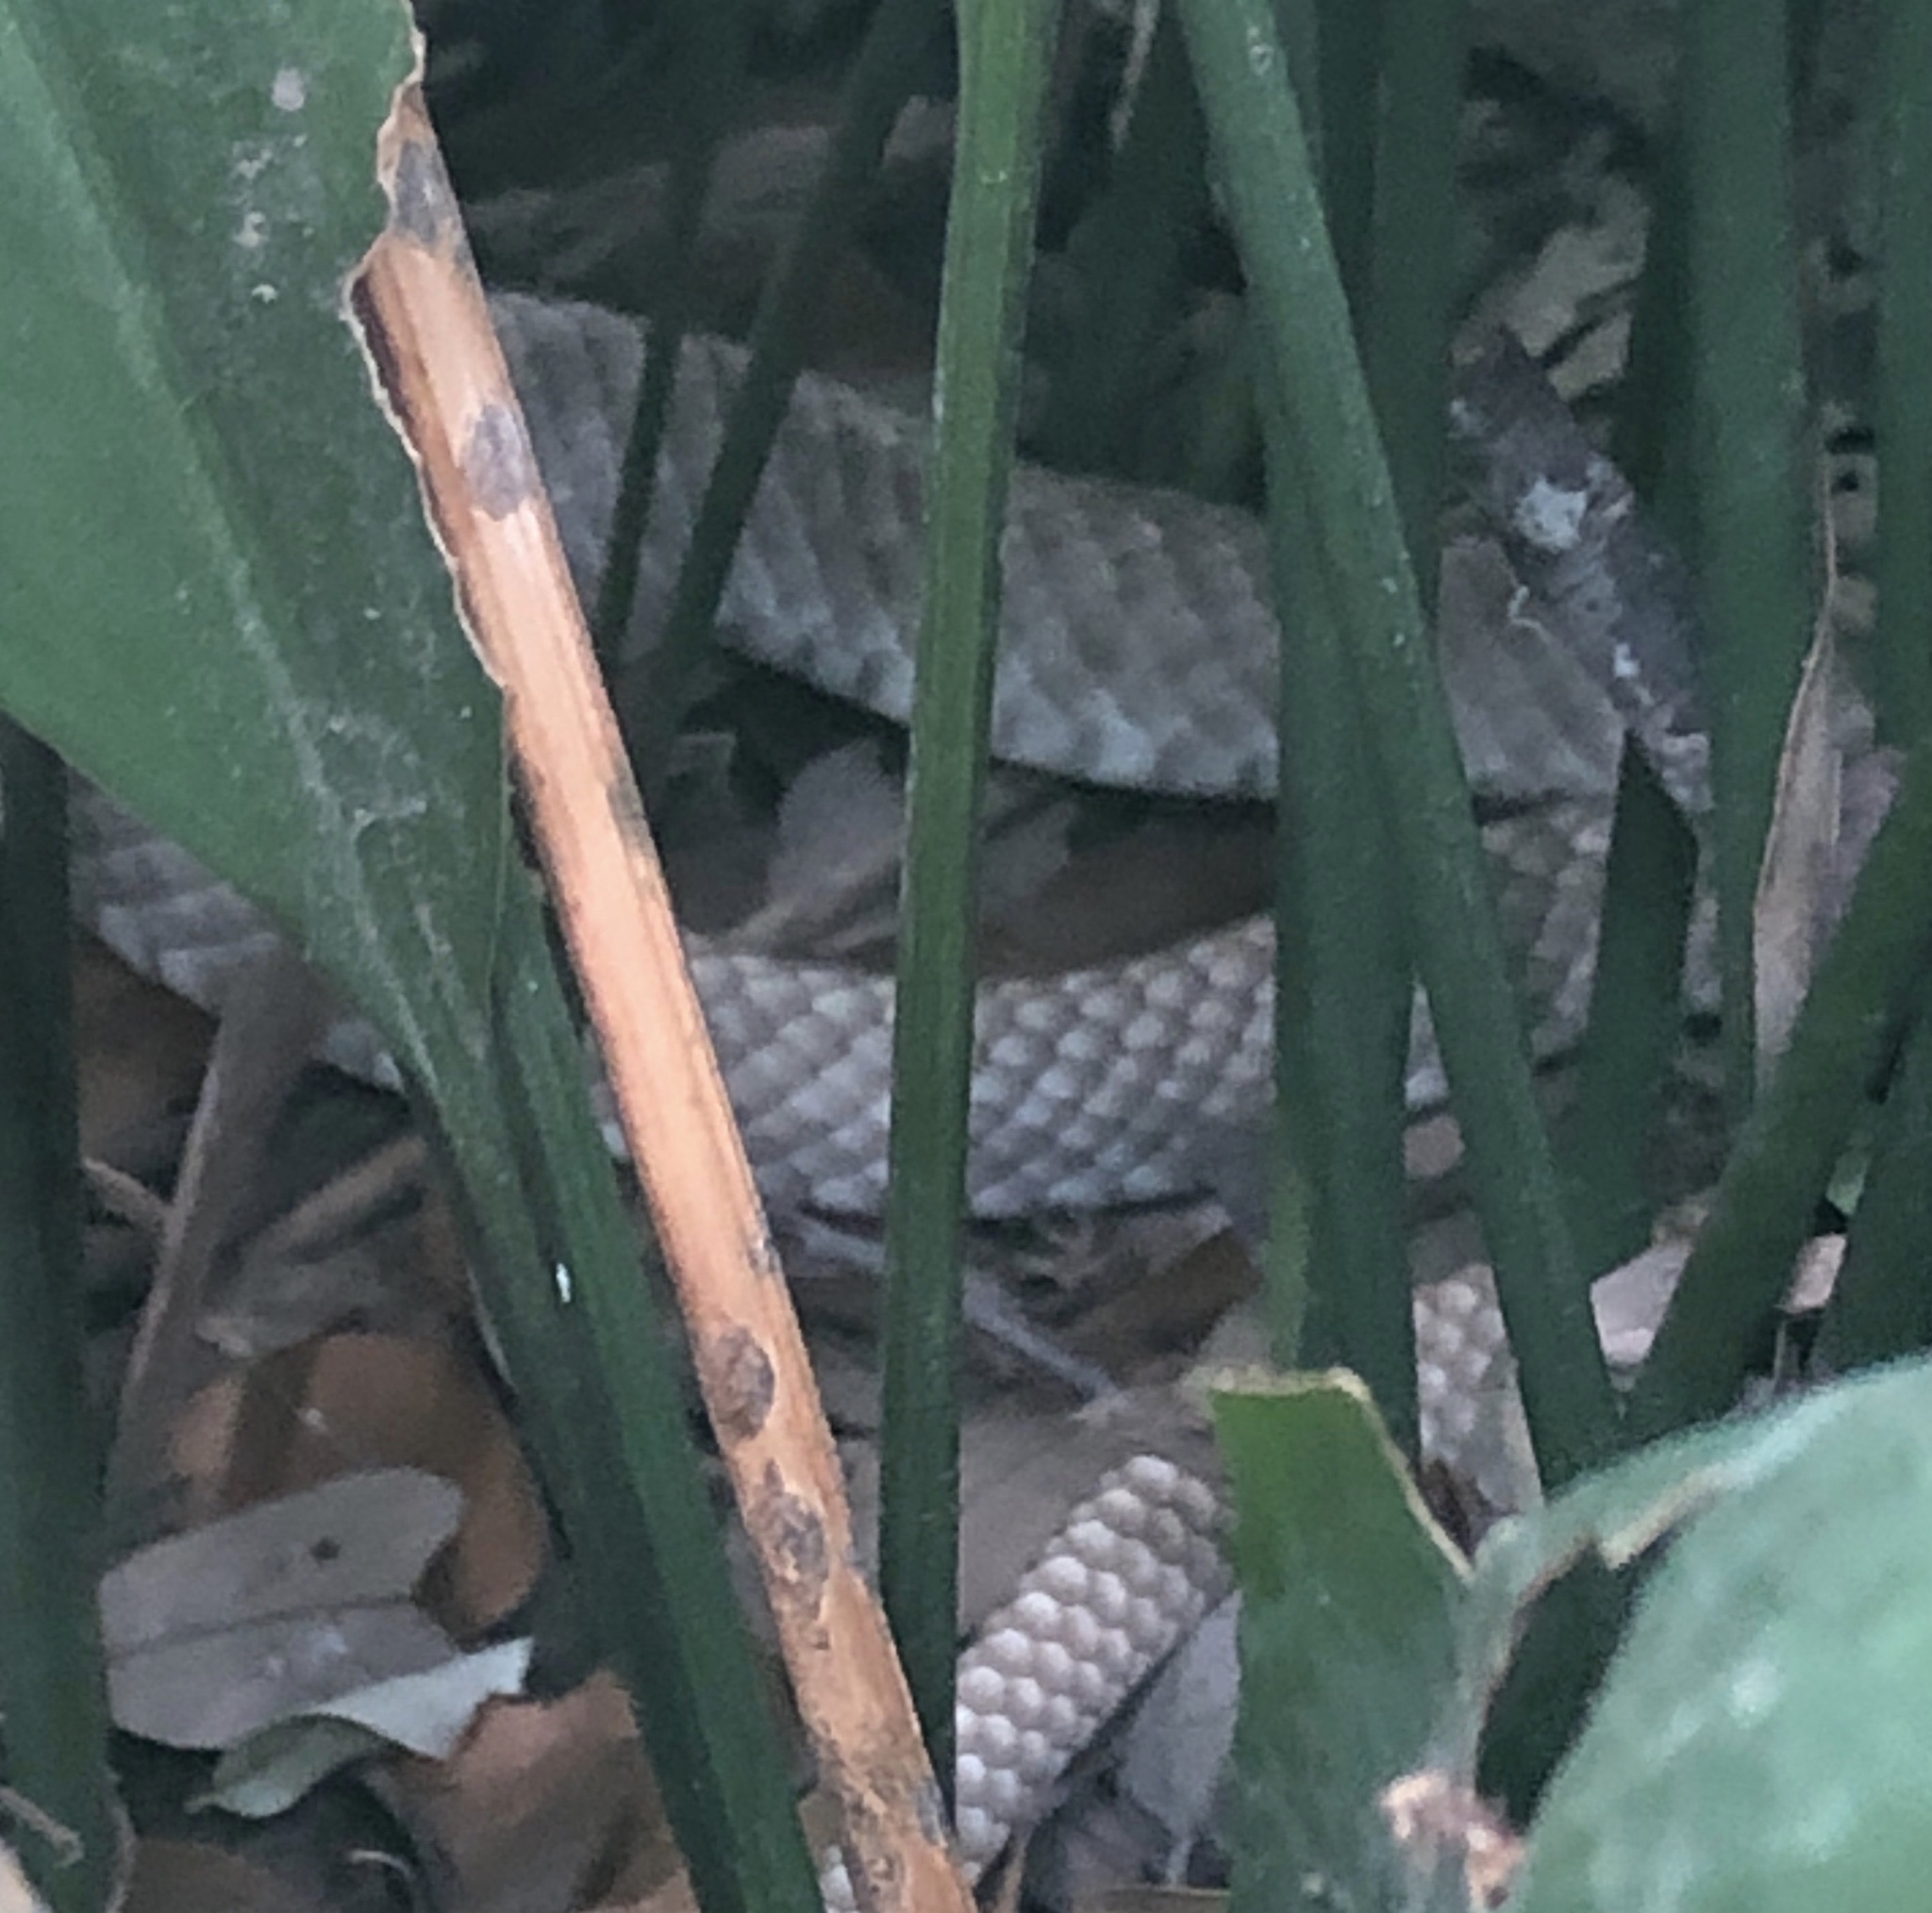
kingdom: Animalia
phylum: Chordata
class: Squamata
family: Colubridae
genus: Masticophis
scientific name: Masticophis flagellum
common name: Coachwhip
